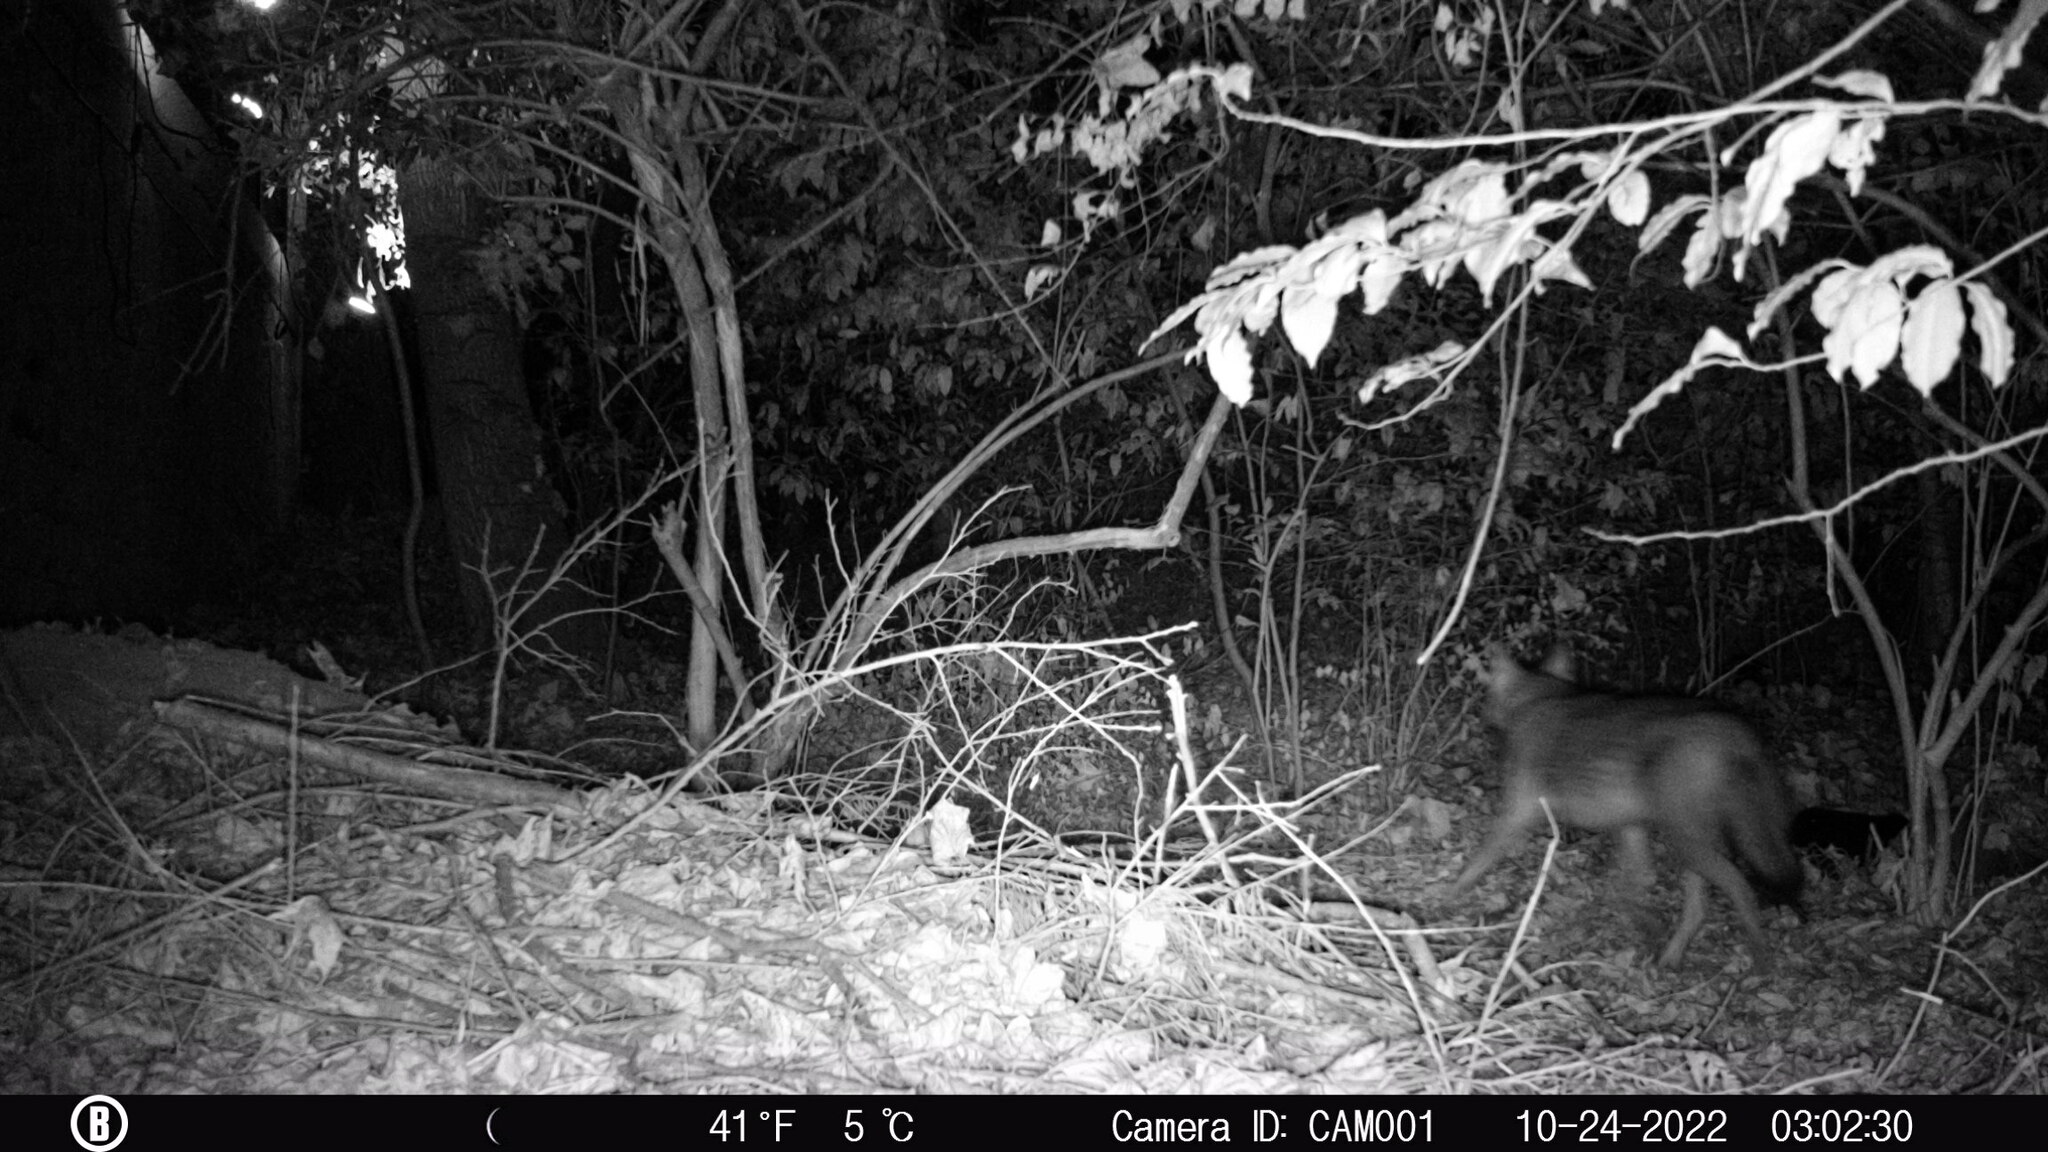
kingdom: Animalia
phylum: Chordata
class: Mammalia
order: Carnivora
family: Canidae
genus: Canis
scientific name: Canis latrans
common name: Coyote
